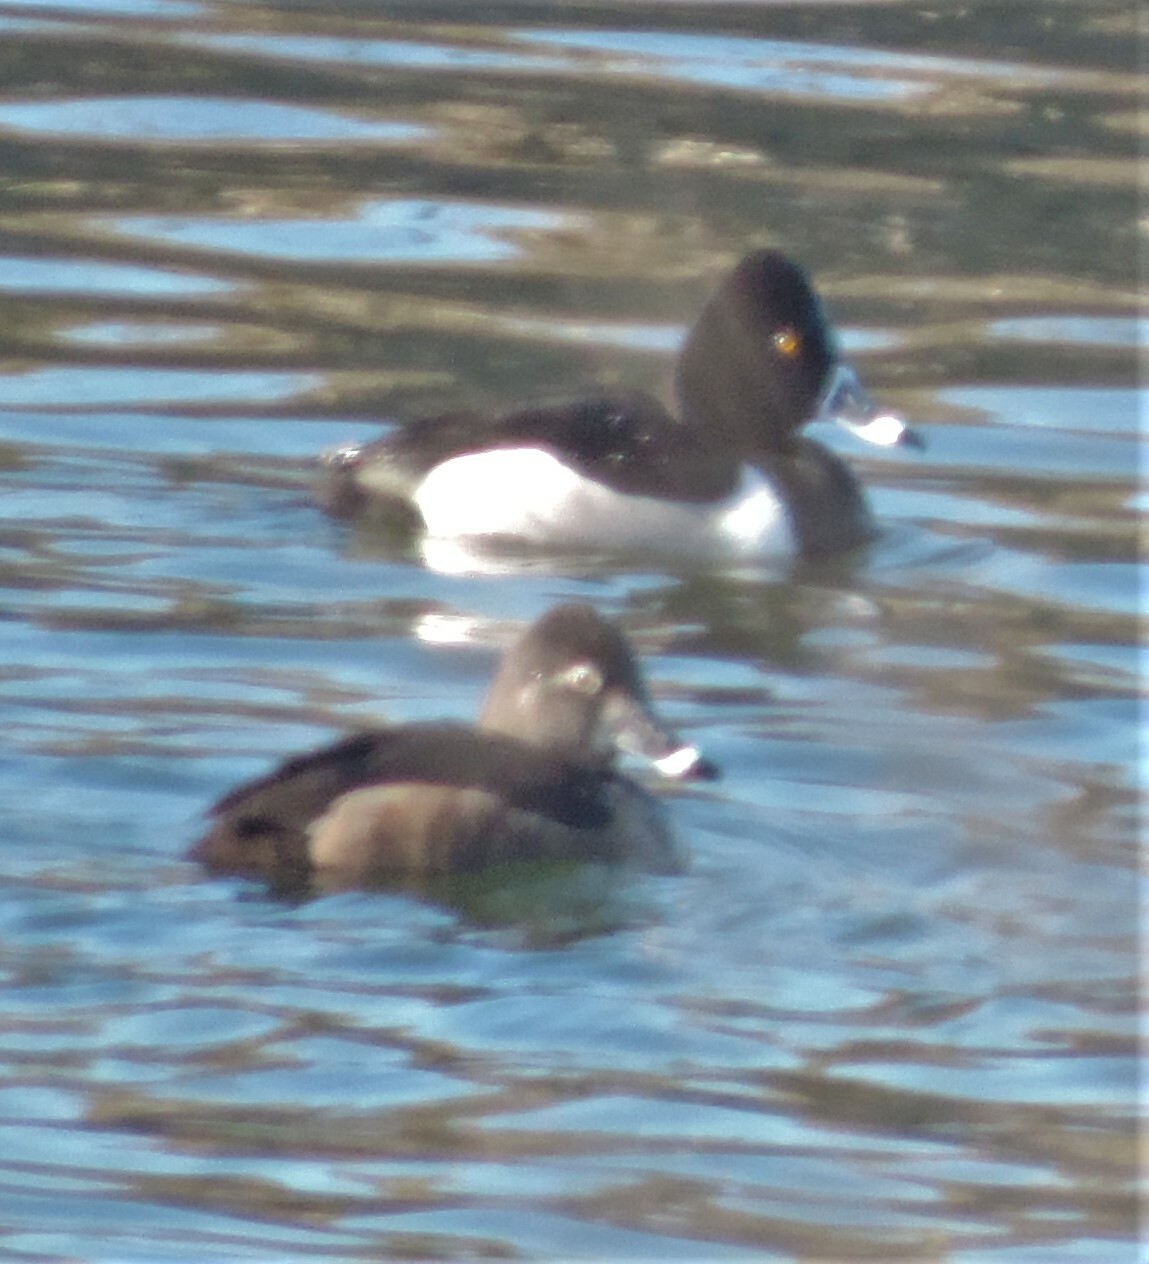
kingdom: Animalia
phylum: Chordata
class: Aves
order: Anseriformes
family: Anatidae
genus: Aythya
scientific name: Aythya collaris
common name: Ring-necked duck
